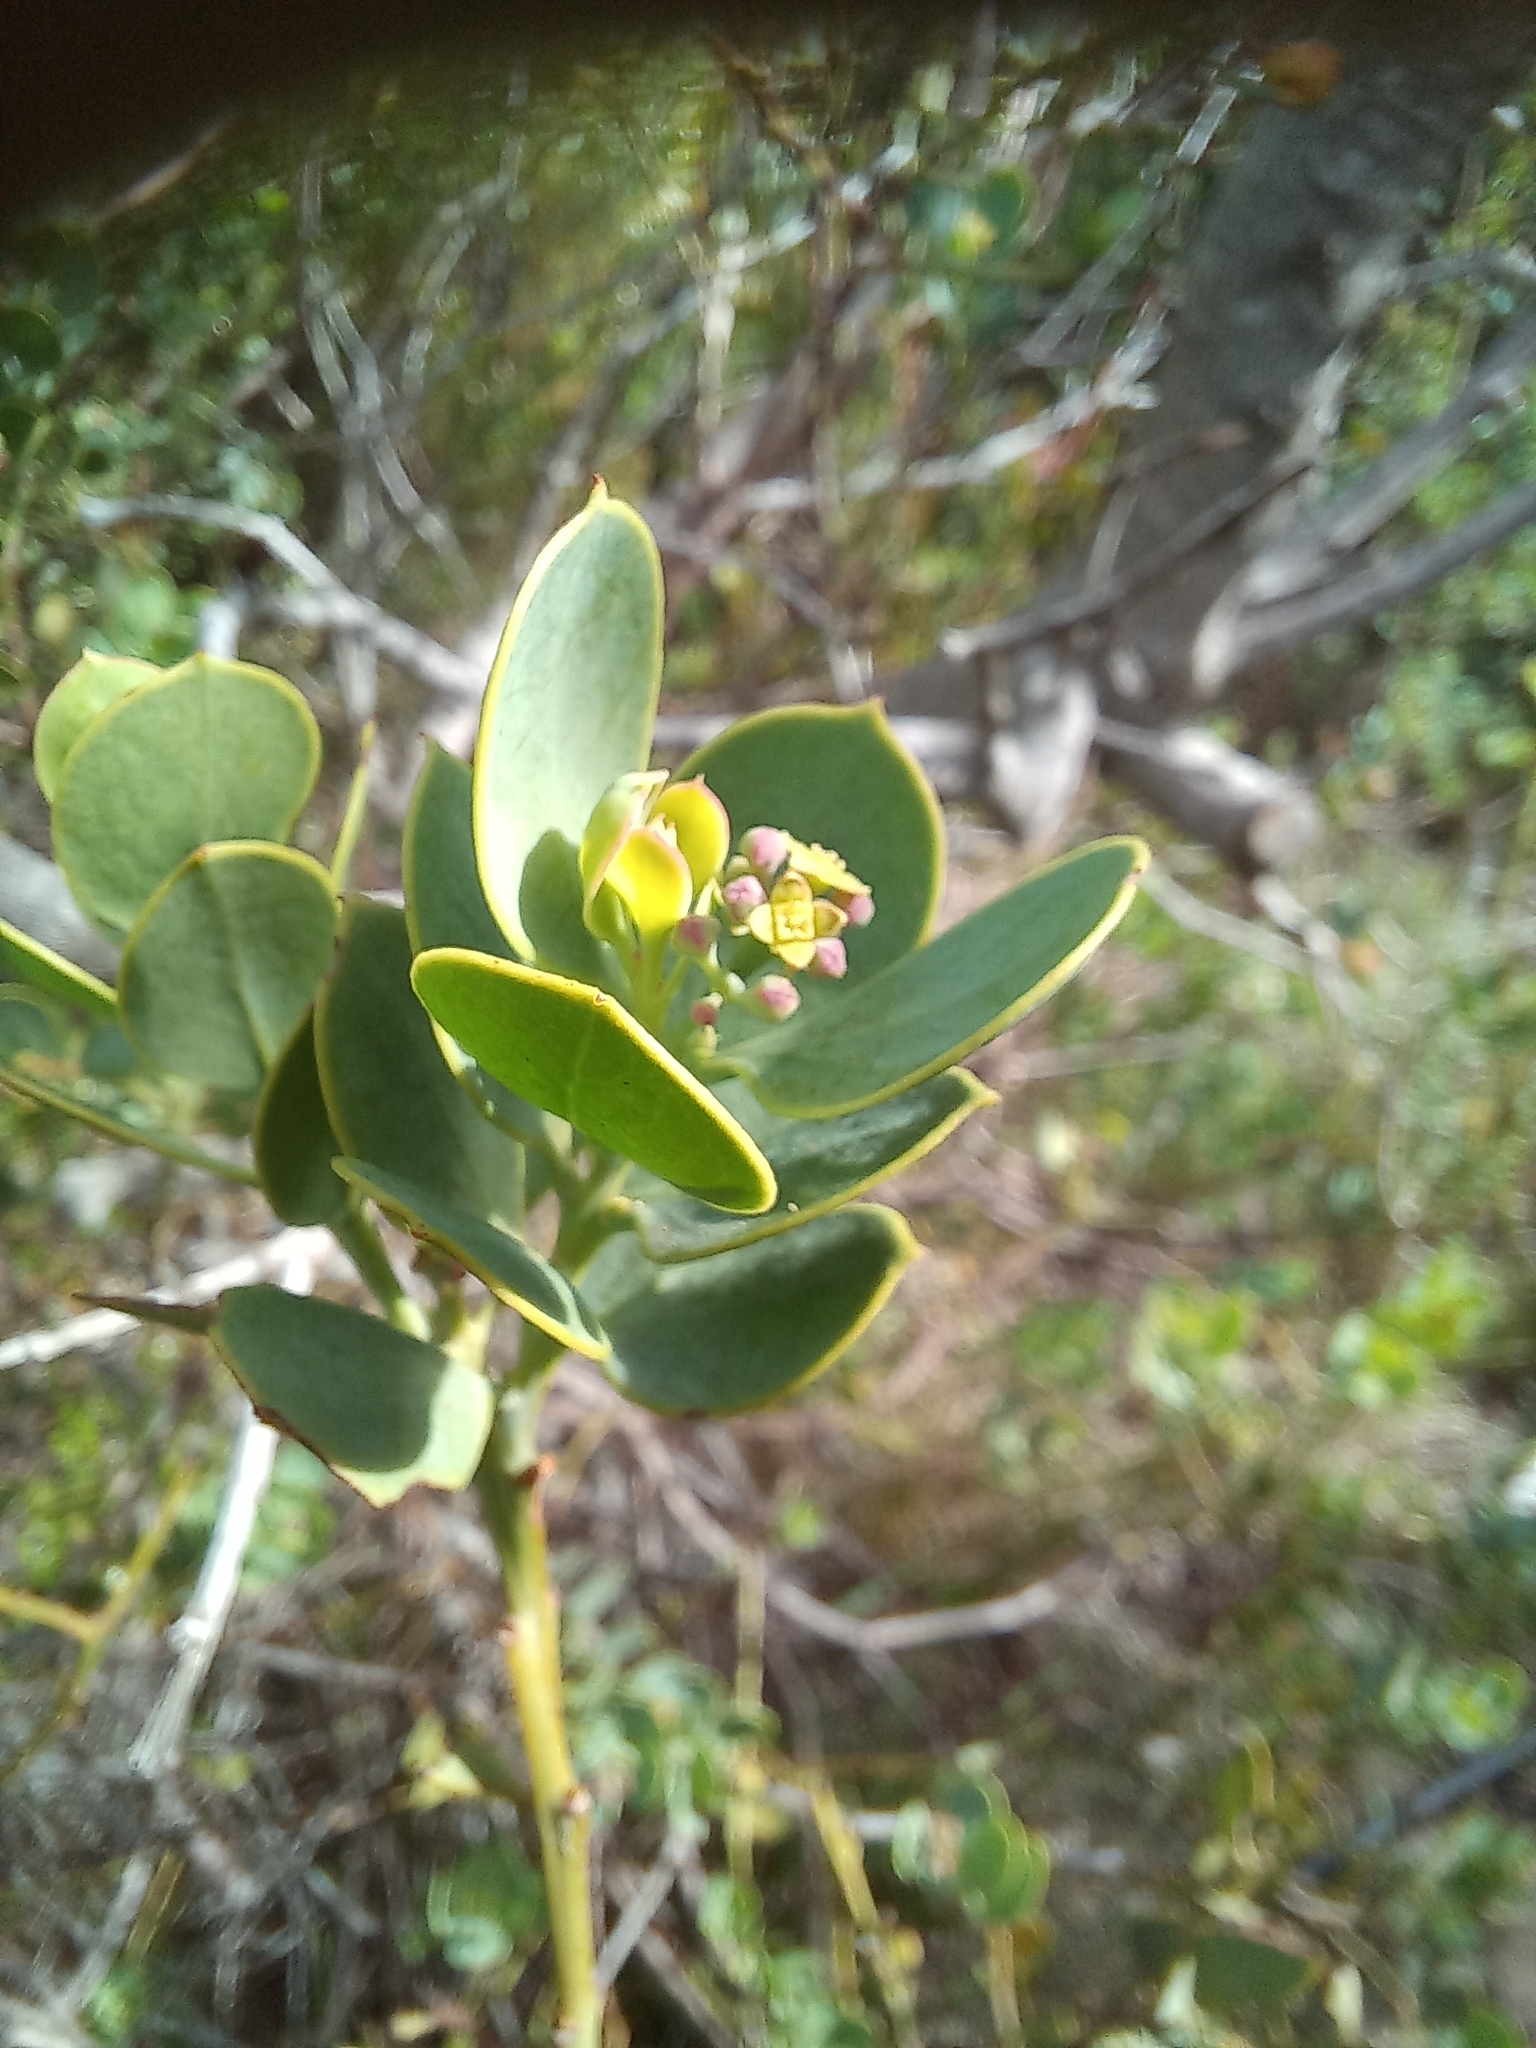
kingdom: Plantae
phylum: Tracheophyta
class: Magnoliopsida
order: Santalales
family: Santalaceae
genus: Osyris
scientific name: Osyris compressa
